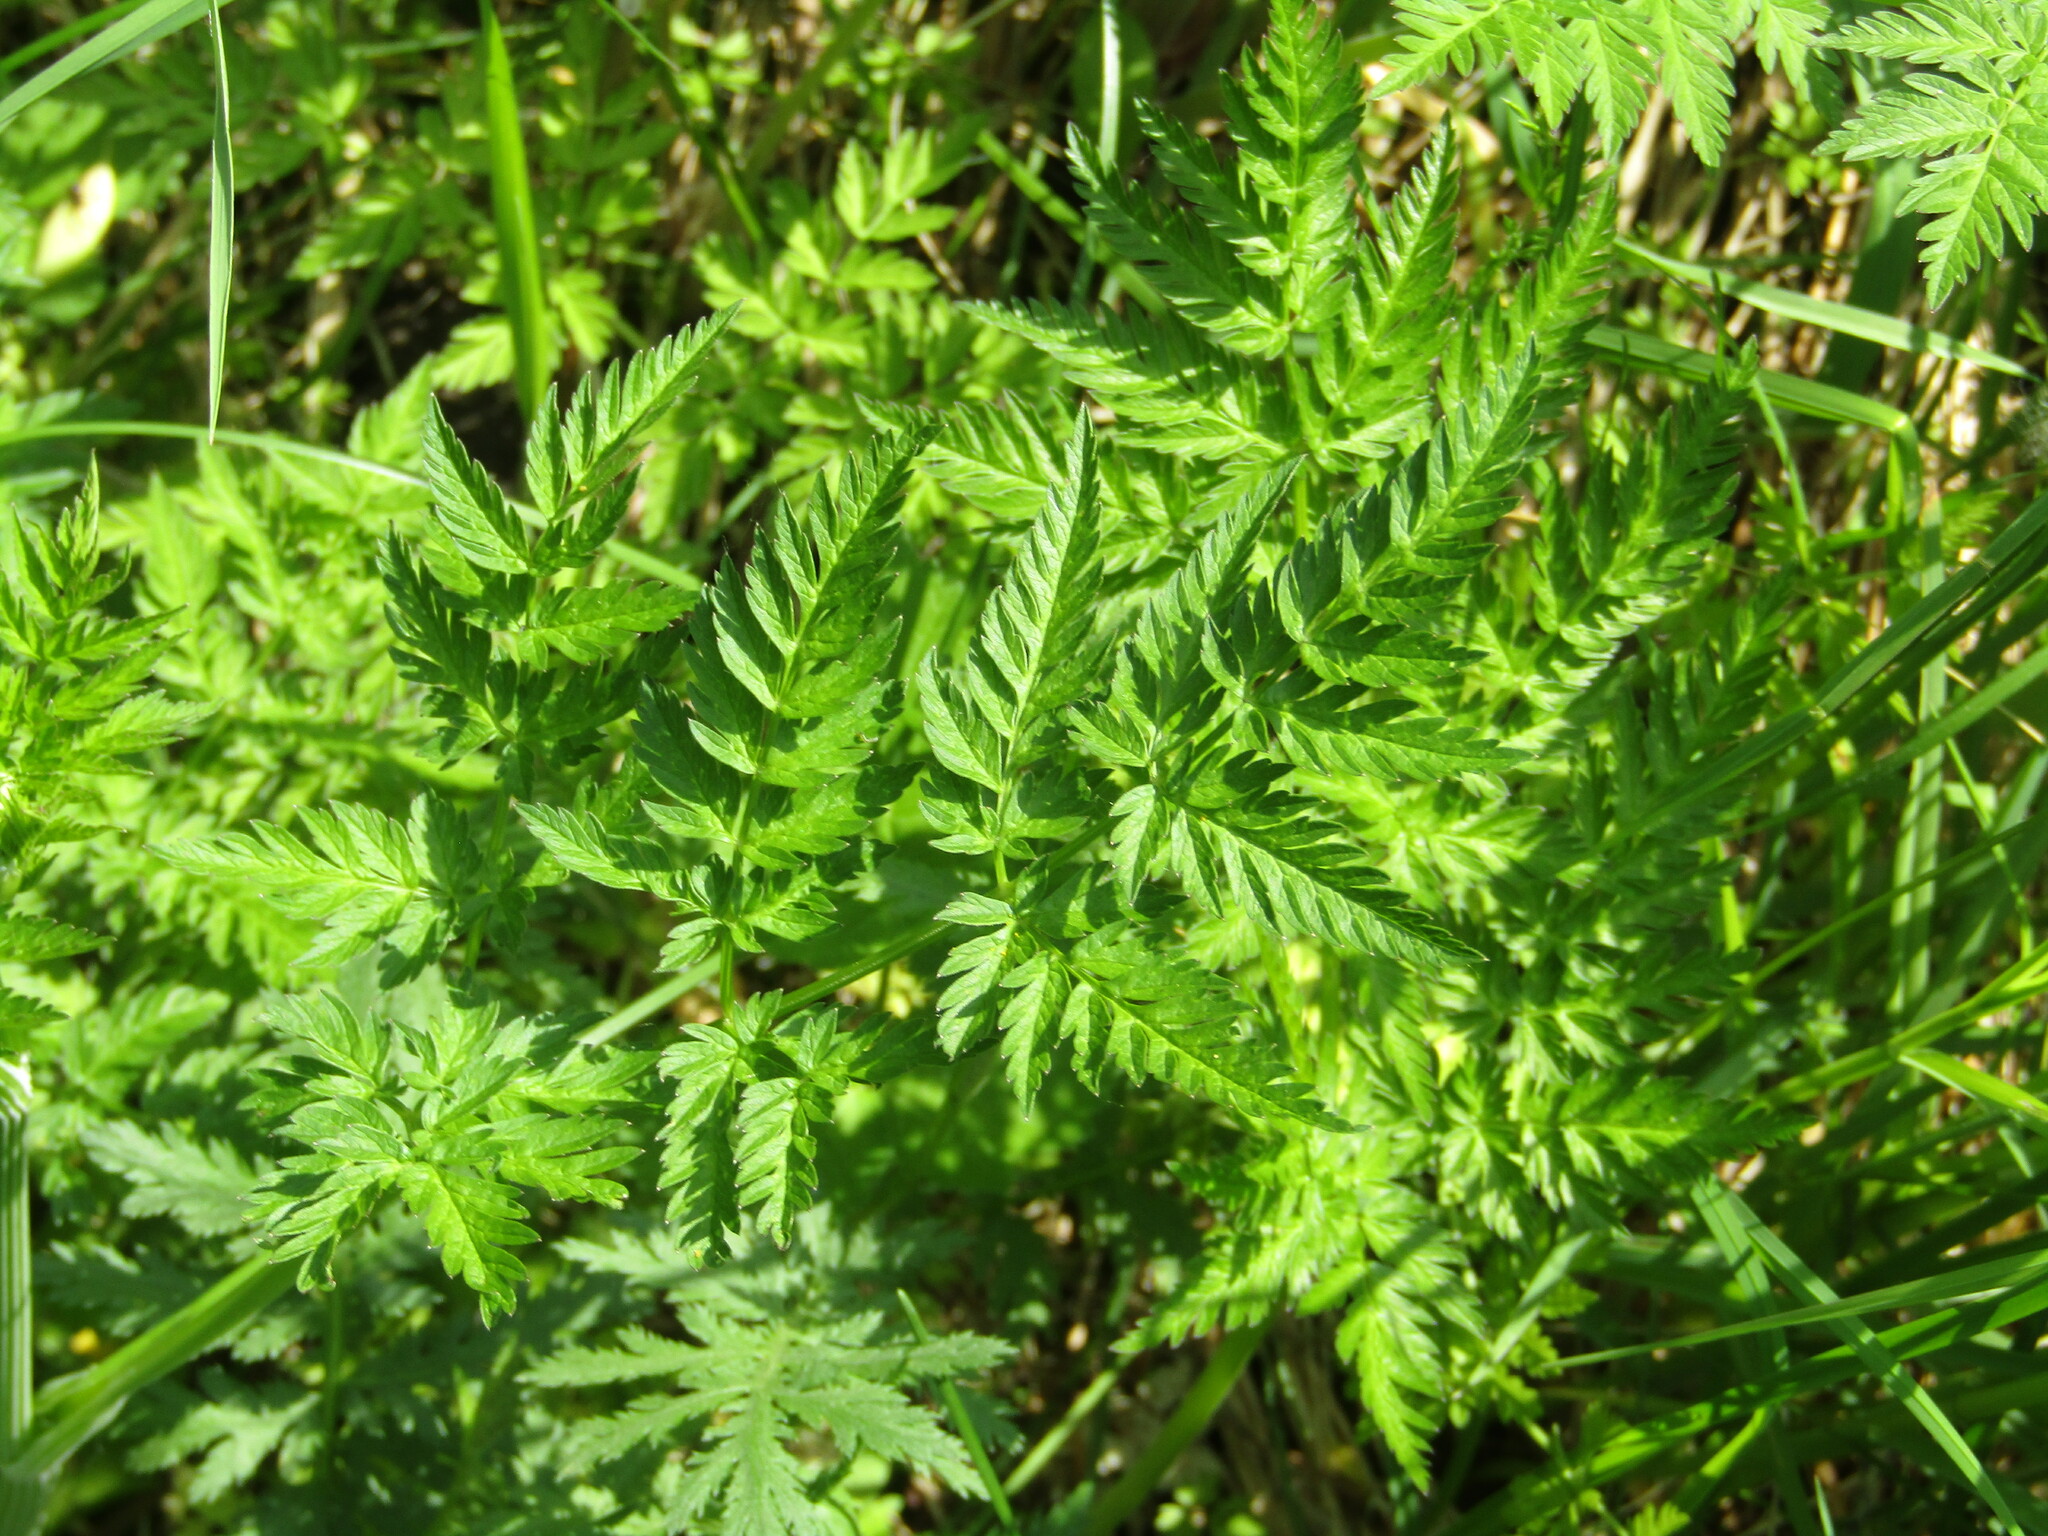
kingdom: Plantae
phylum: Tracheophyta
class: Magnoliopsida
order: Apiales
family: Apiaceae
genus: Anthriscus
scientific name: Anthriscus sylvestris
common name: Cow parsley
